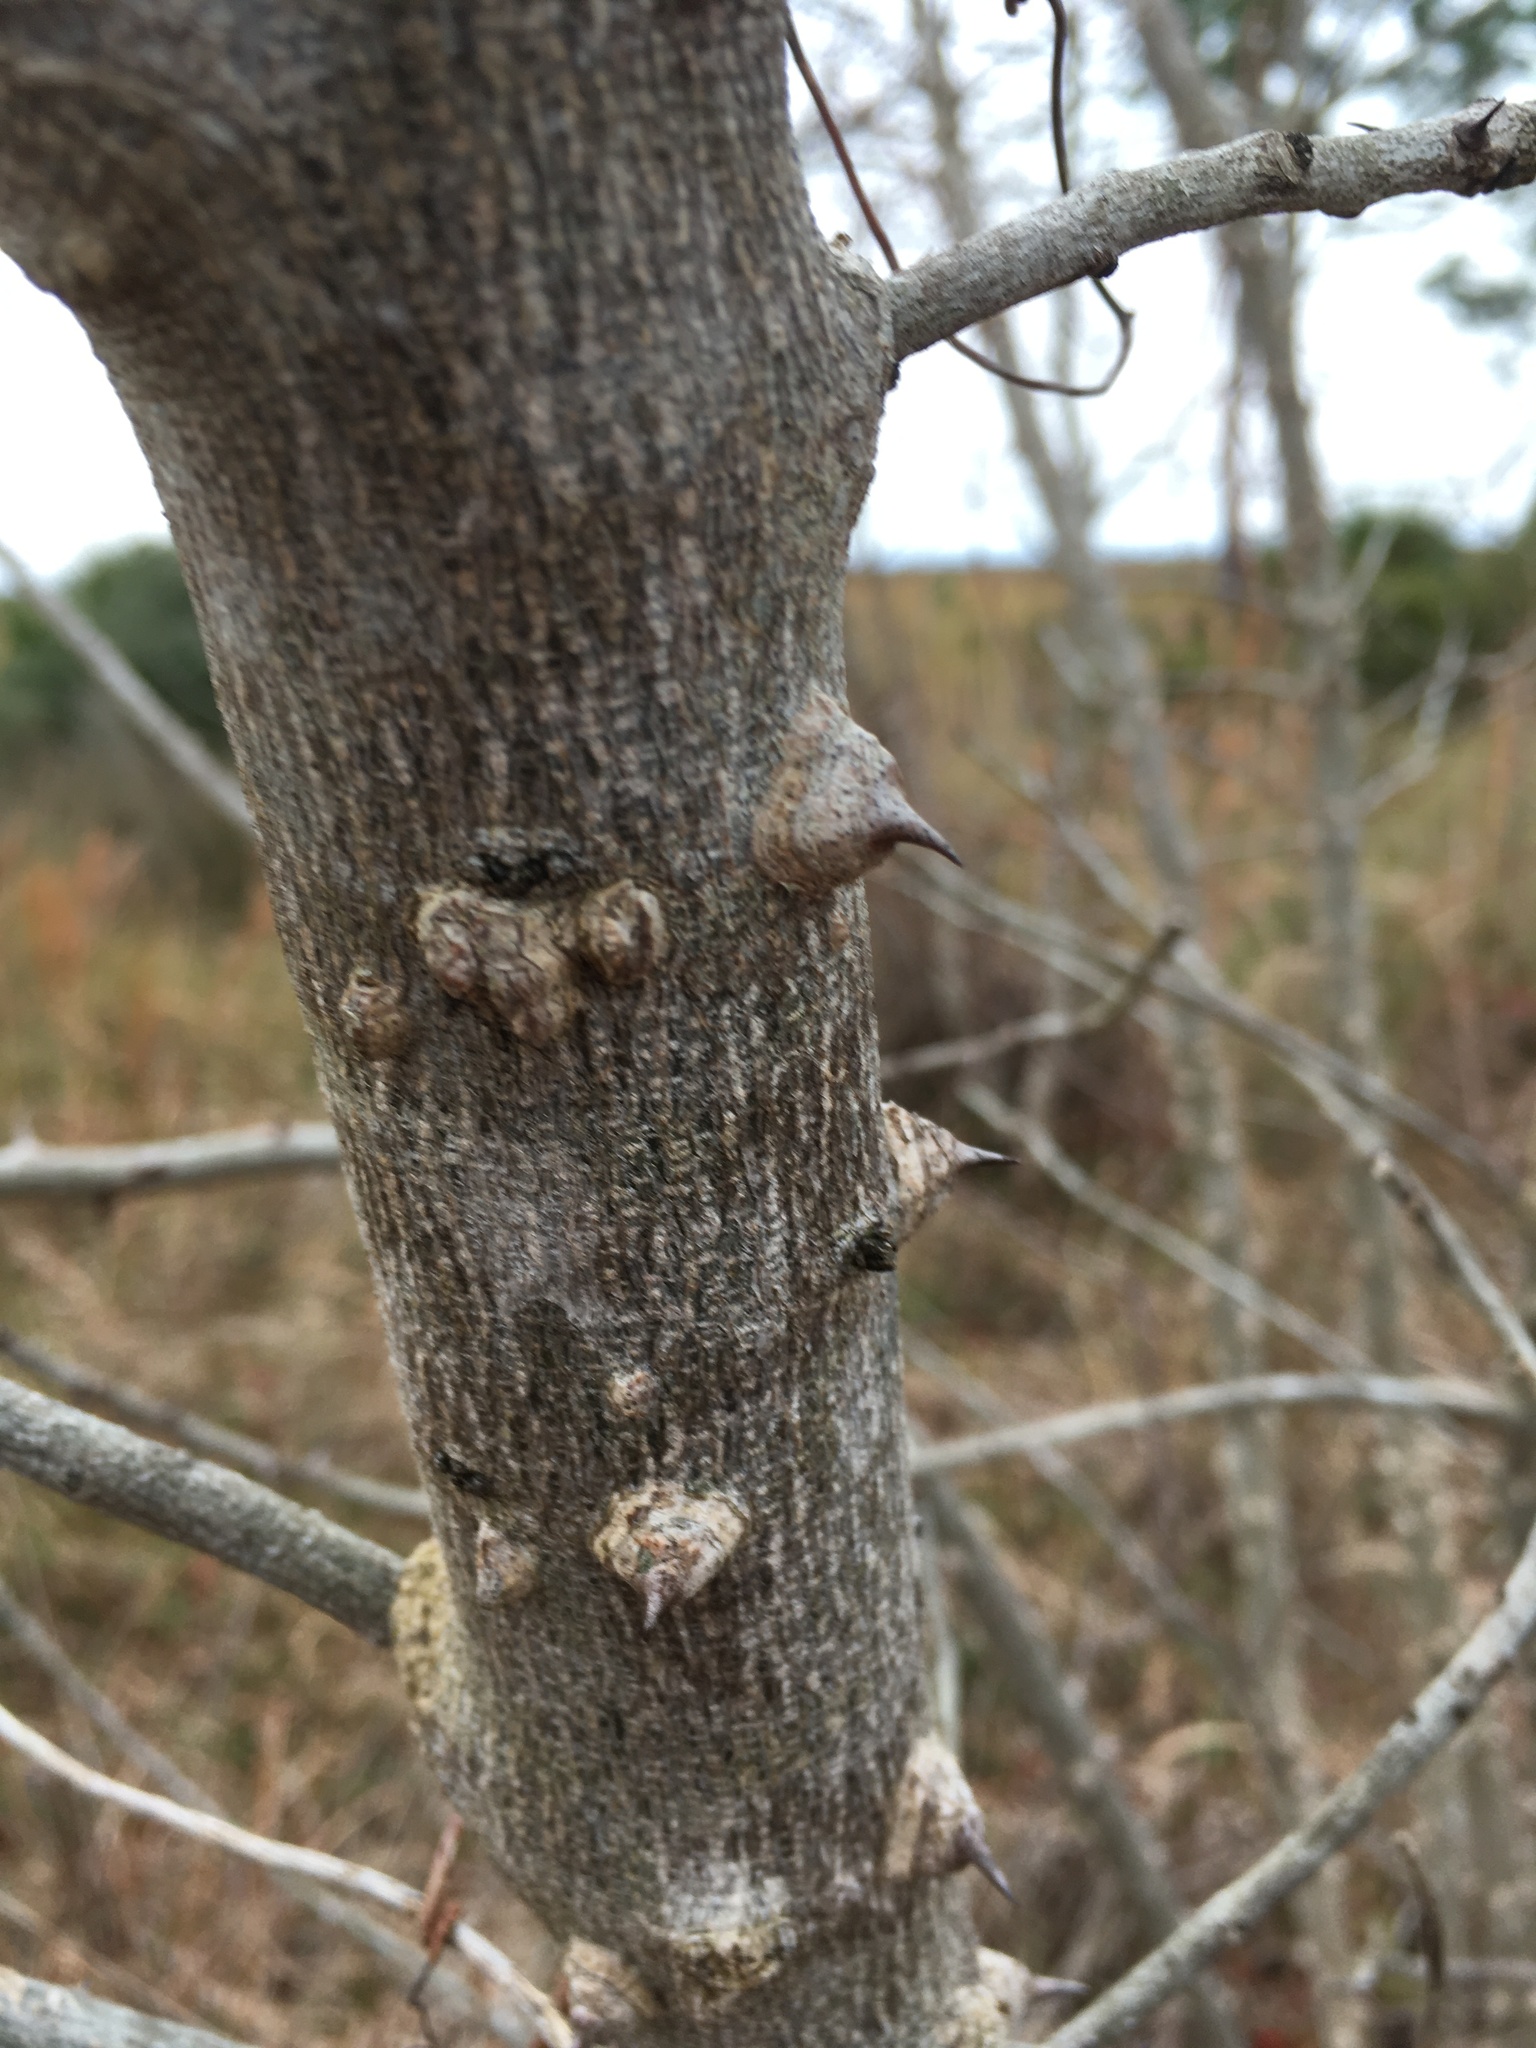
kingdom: Plantae
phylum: Tracheophyta
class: Magnoliopsida
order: Sapindales
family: Rutaceae
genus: Zanthoxylum
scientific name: Zanthoxylum clava-herculis
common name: Hercules'-club
